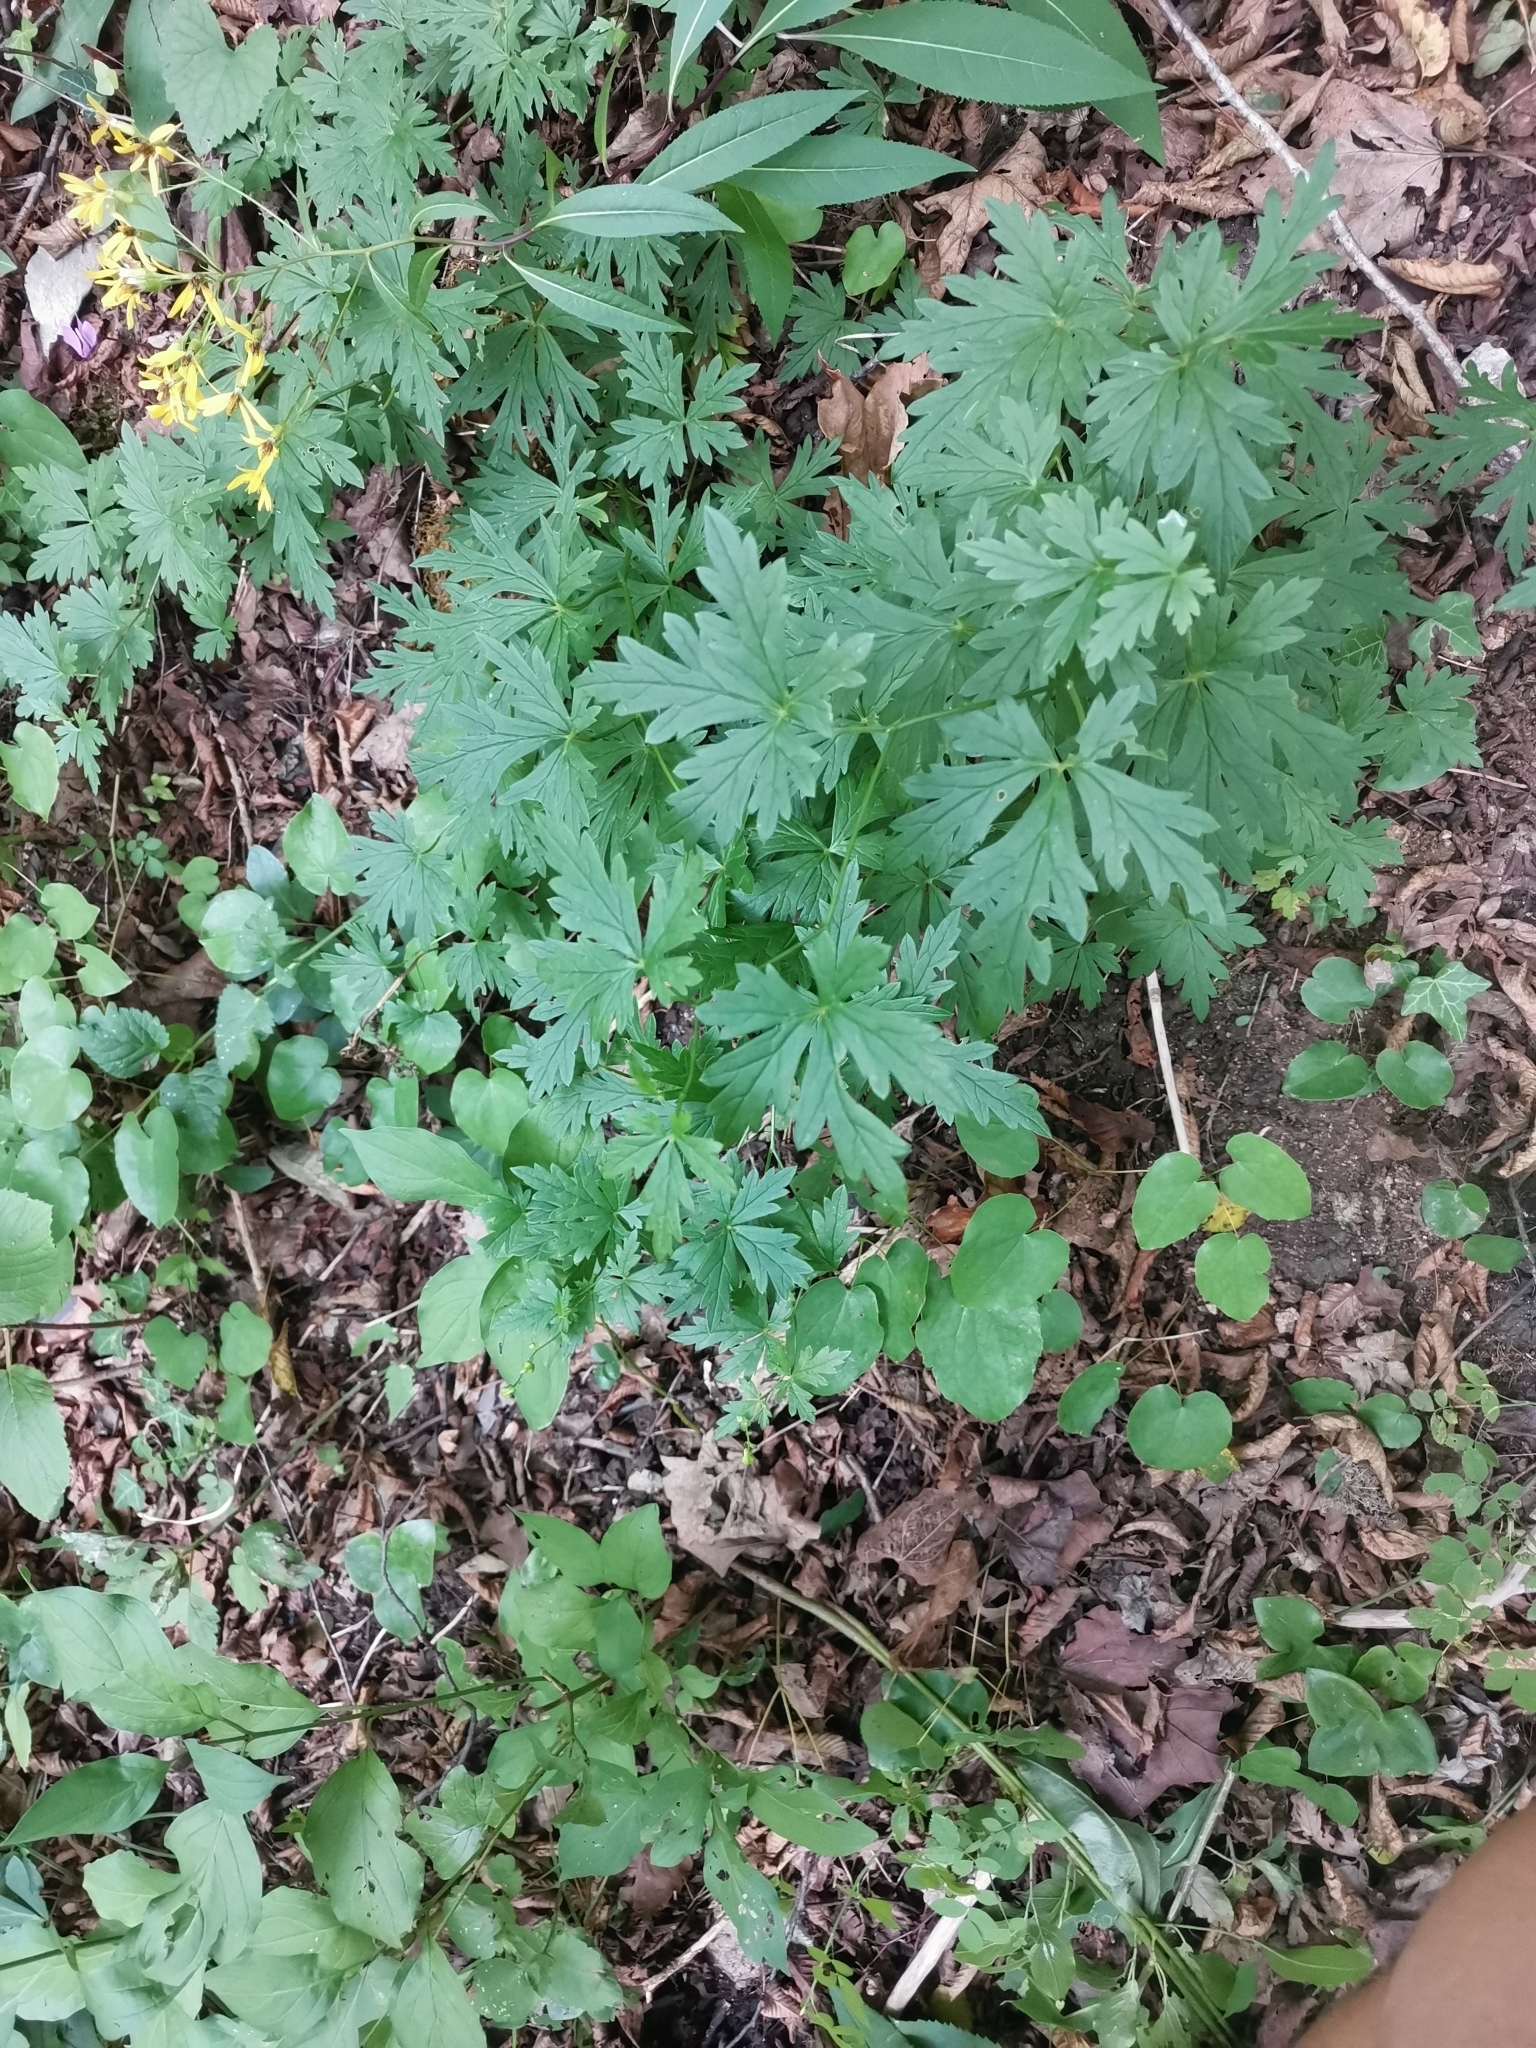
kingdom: Plantae
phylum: Tracheophyta
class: Magnoliopsida
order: Ranunculales
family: Ranunculaceae
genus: Aconitum
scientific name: Aconitum variegatum
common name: Manchurian monkshood
